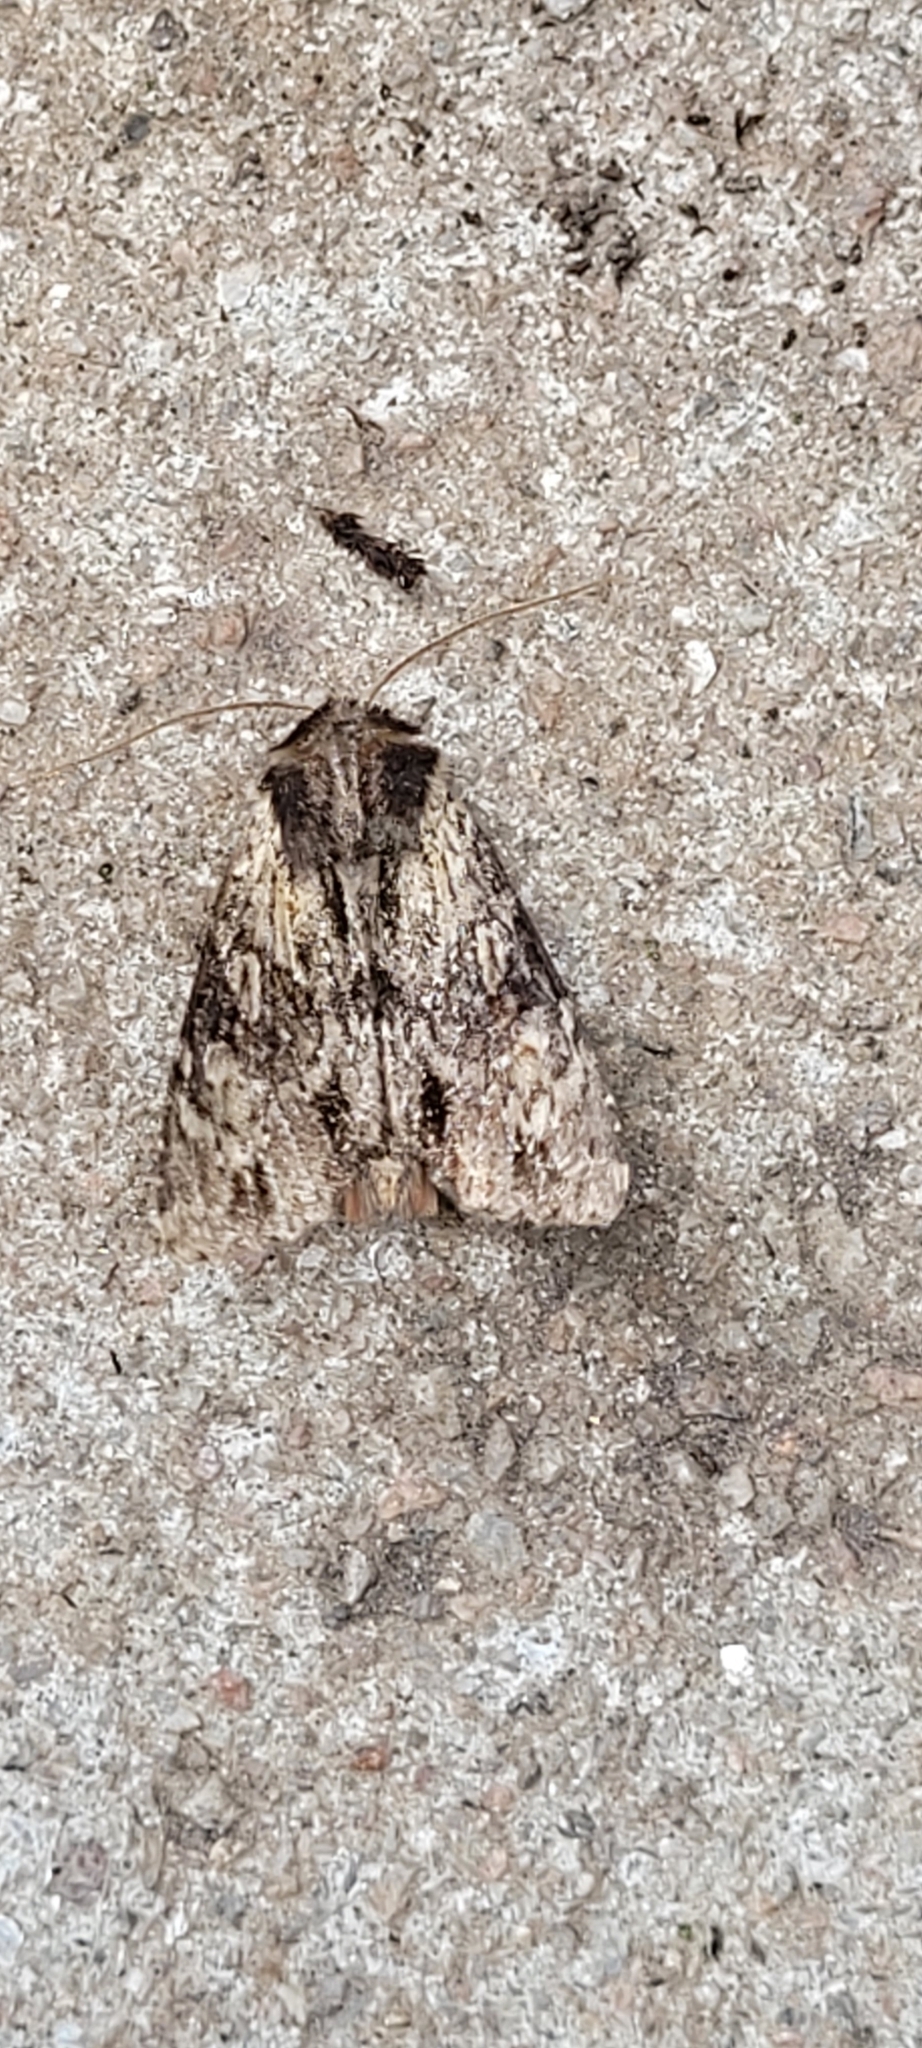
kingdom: Animalia
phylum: Arthropoda
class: Insecta
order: Lepidoptera
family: Noctuidae
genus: Apamea
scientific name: Apamea crenata
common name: Clouded-bordered brindle
